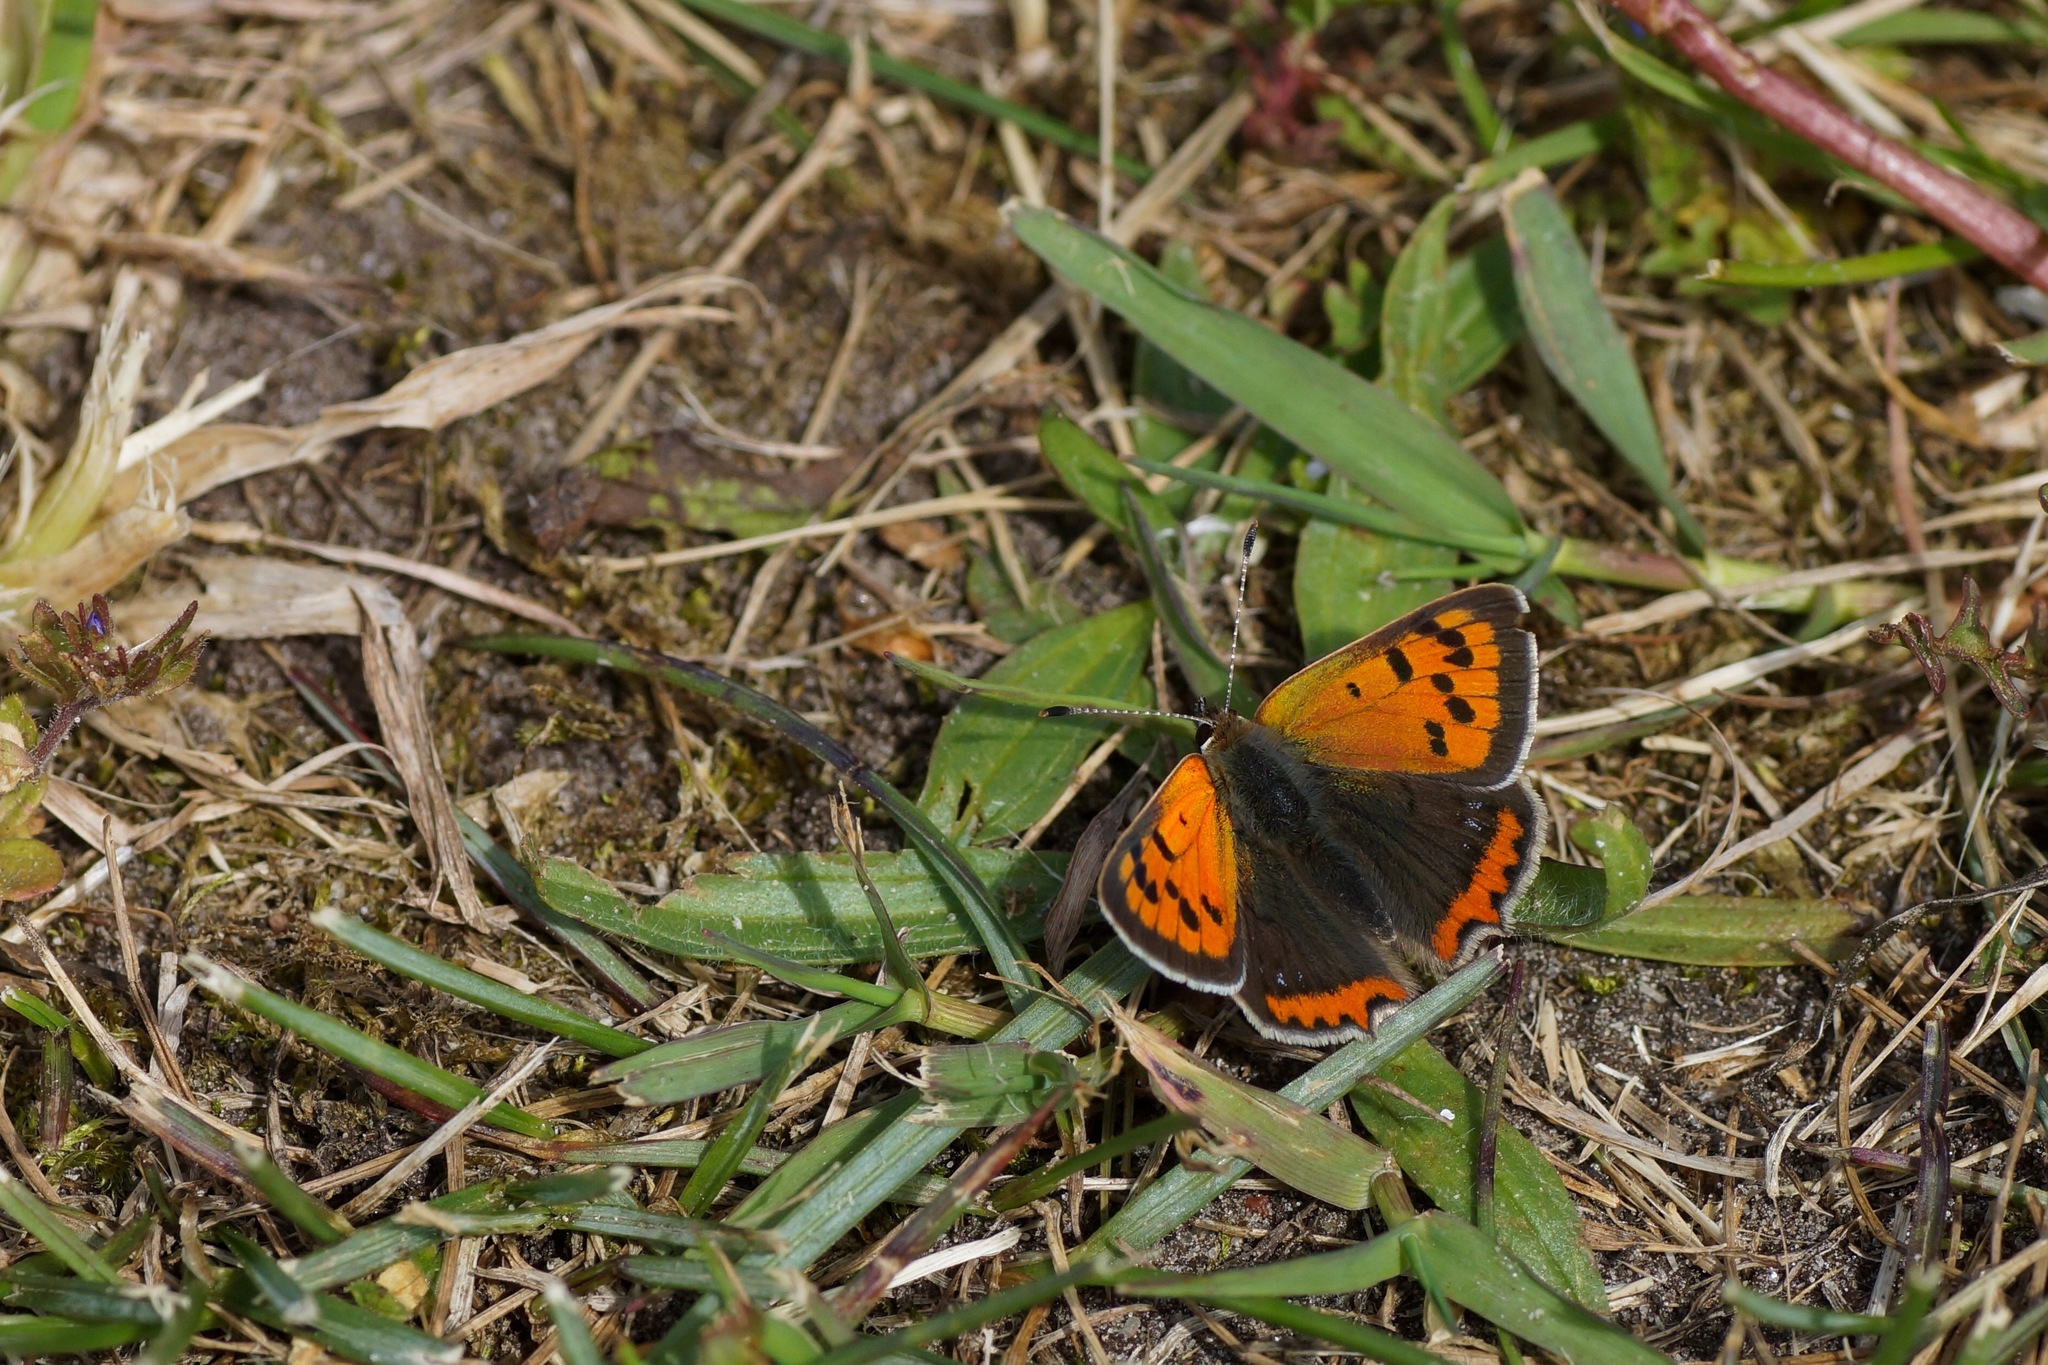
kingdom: Animalia
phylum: Arthropoda
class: Insecta
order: Lepidoptera
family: Lycaenidae
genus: Lycaena
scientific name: Lycaena phlaeas
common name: Small copper
